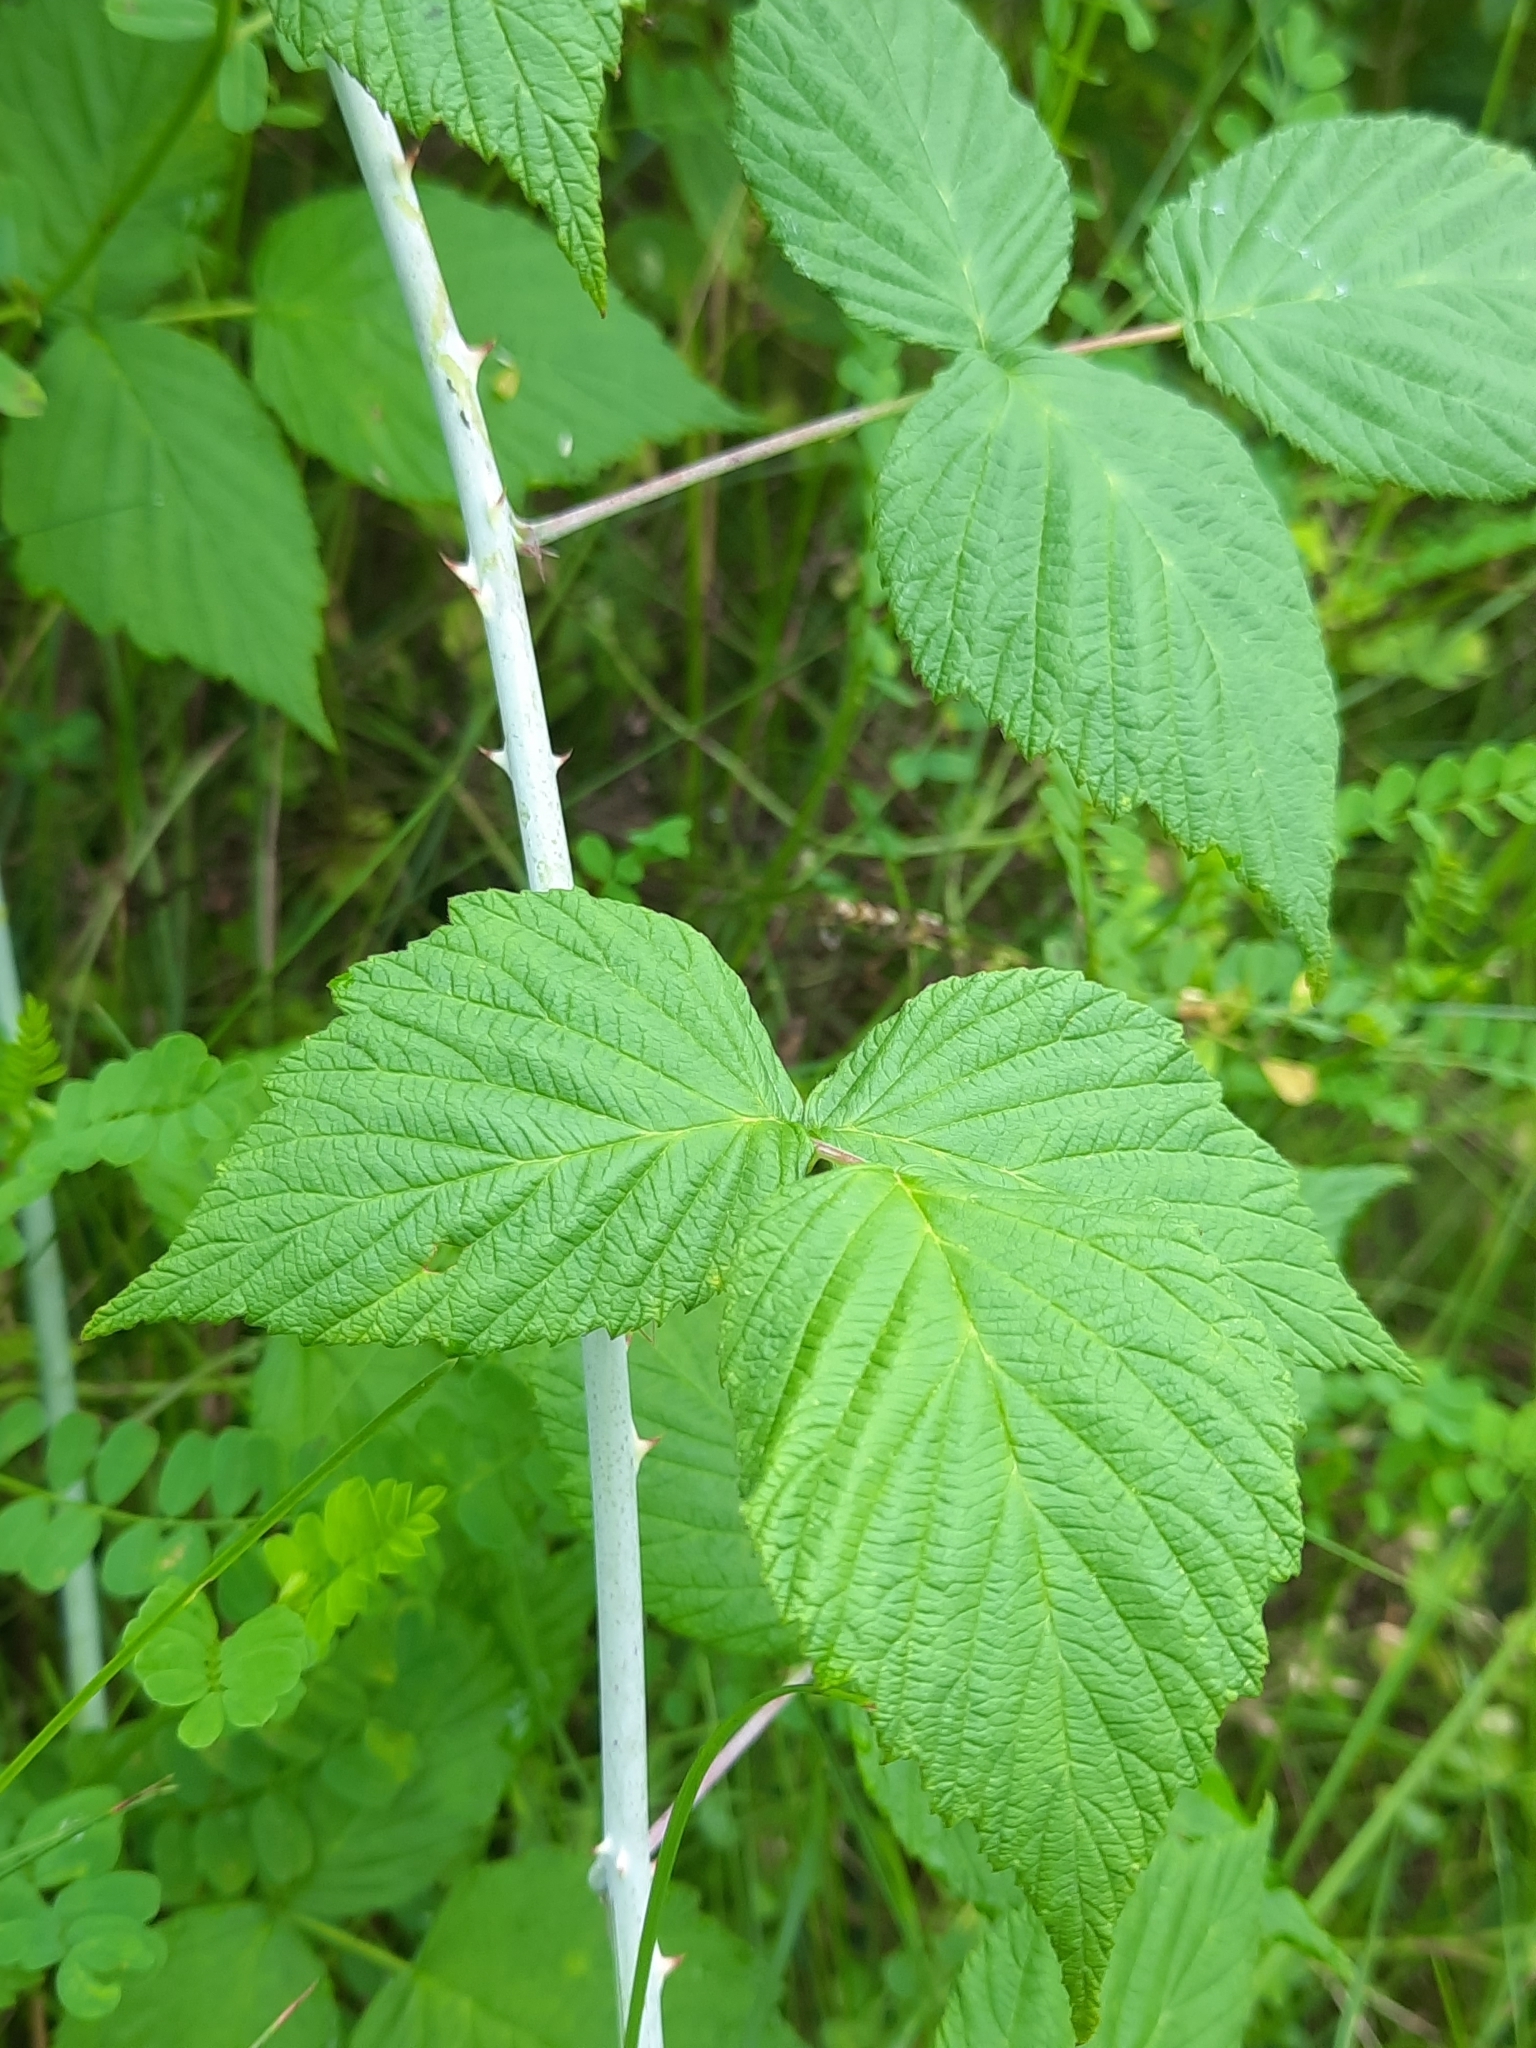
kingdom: Plantae
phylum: Tracheophyta
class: Magnoliopsida
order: Rosales
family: Rosaceae
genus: Rubus
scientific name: Rubus occidentalis
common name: Black raspberry
